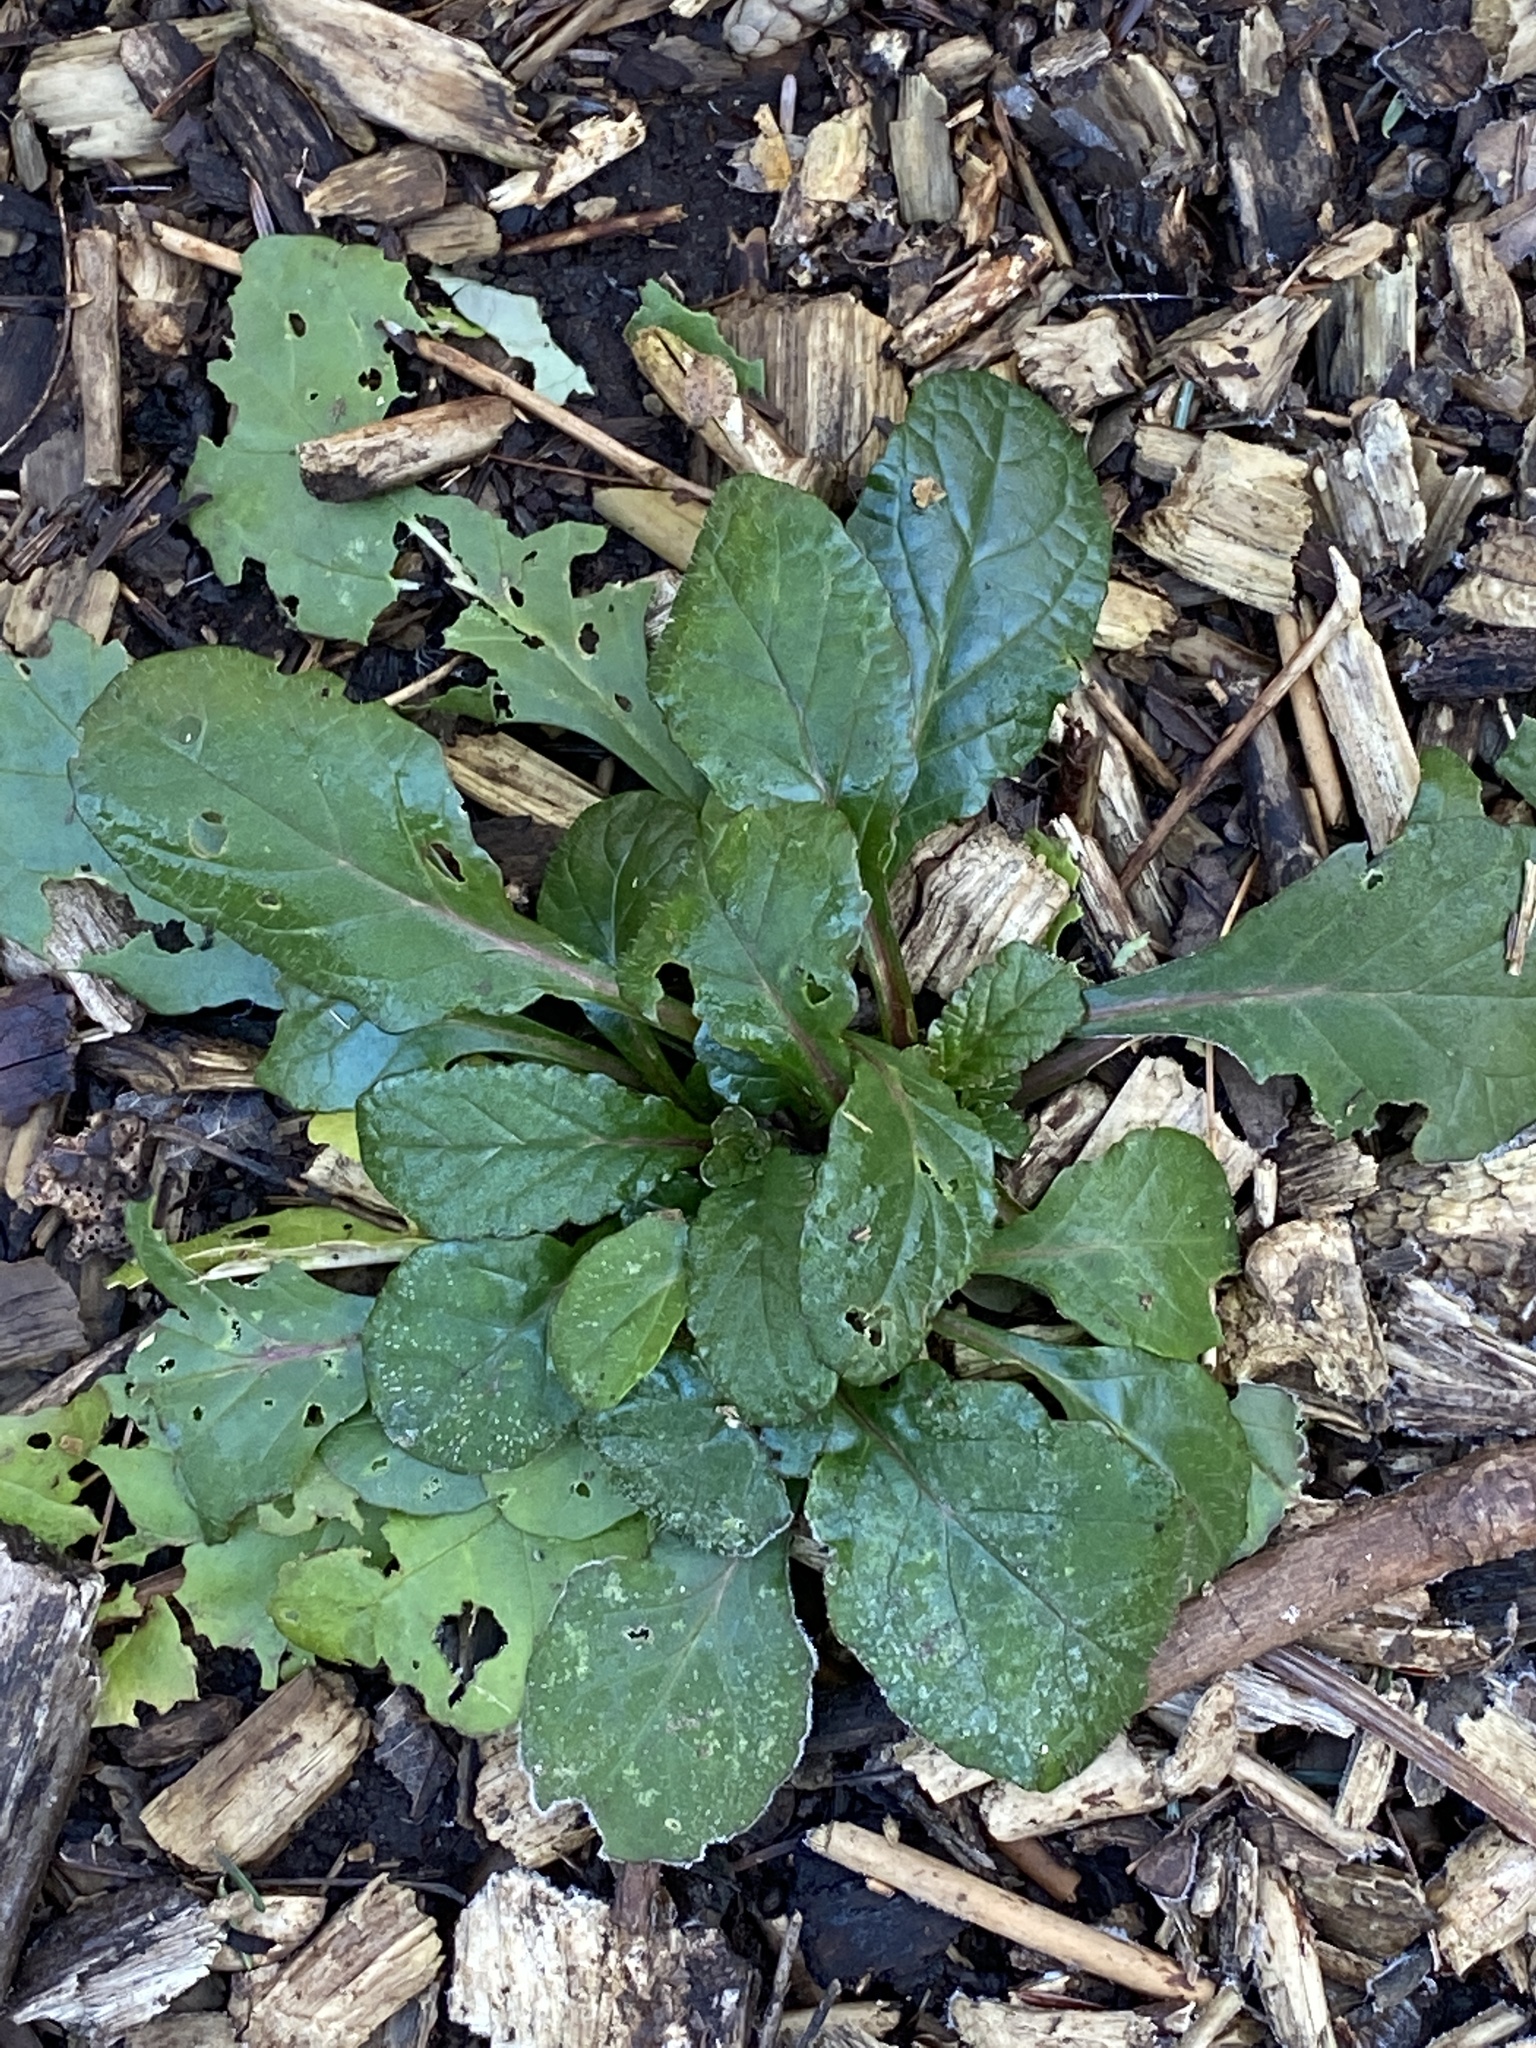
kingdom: Plantae
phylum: Tracheophyta
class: Magnoliopsida
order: Lamiales
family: Lamiaceae
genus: Ajuga
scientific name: Ajuga reptans
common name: Bugle
